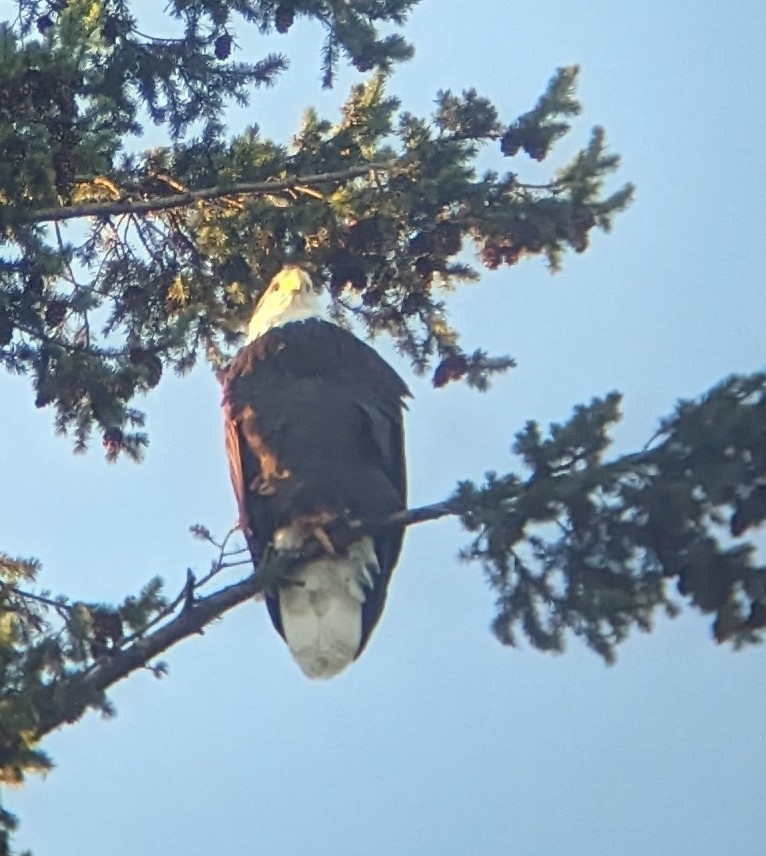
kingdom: Animalia
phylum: Chordata
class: Aves
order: Accipitriformes
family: Accipitridae
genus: Haliaeetus
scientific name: Haliaeetus leucocephalus
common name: Bald eagle
